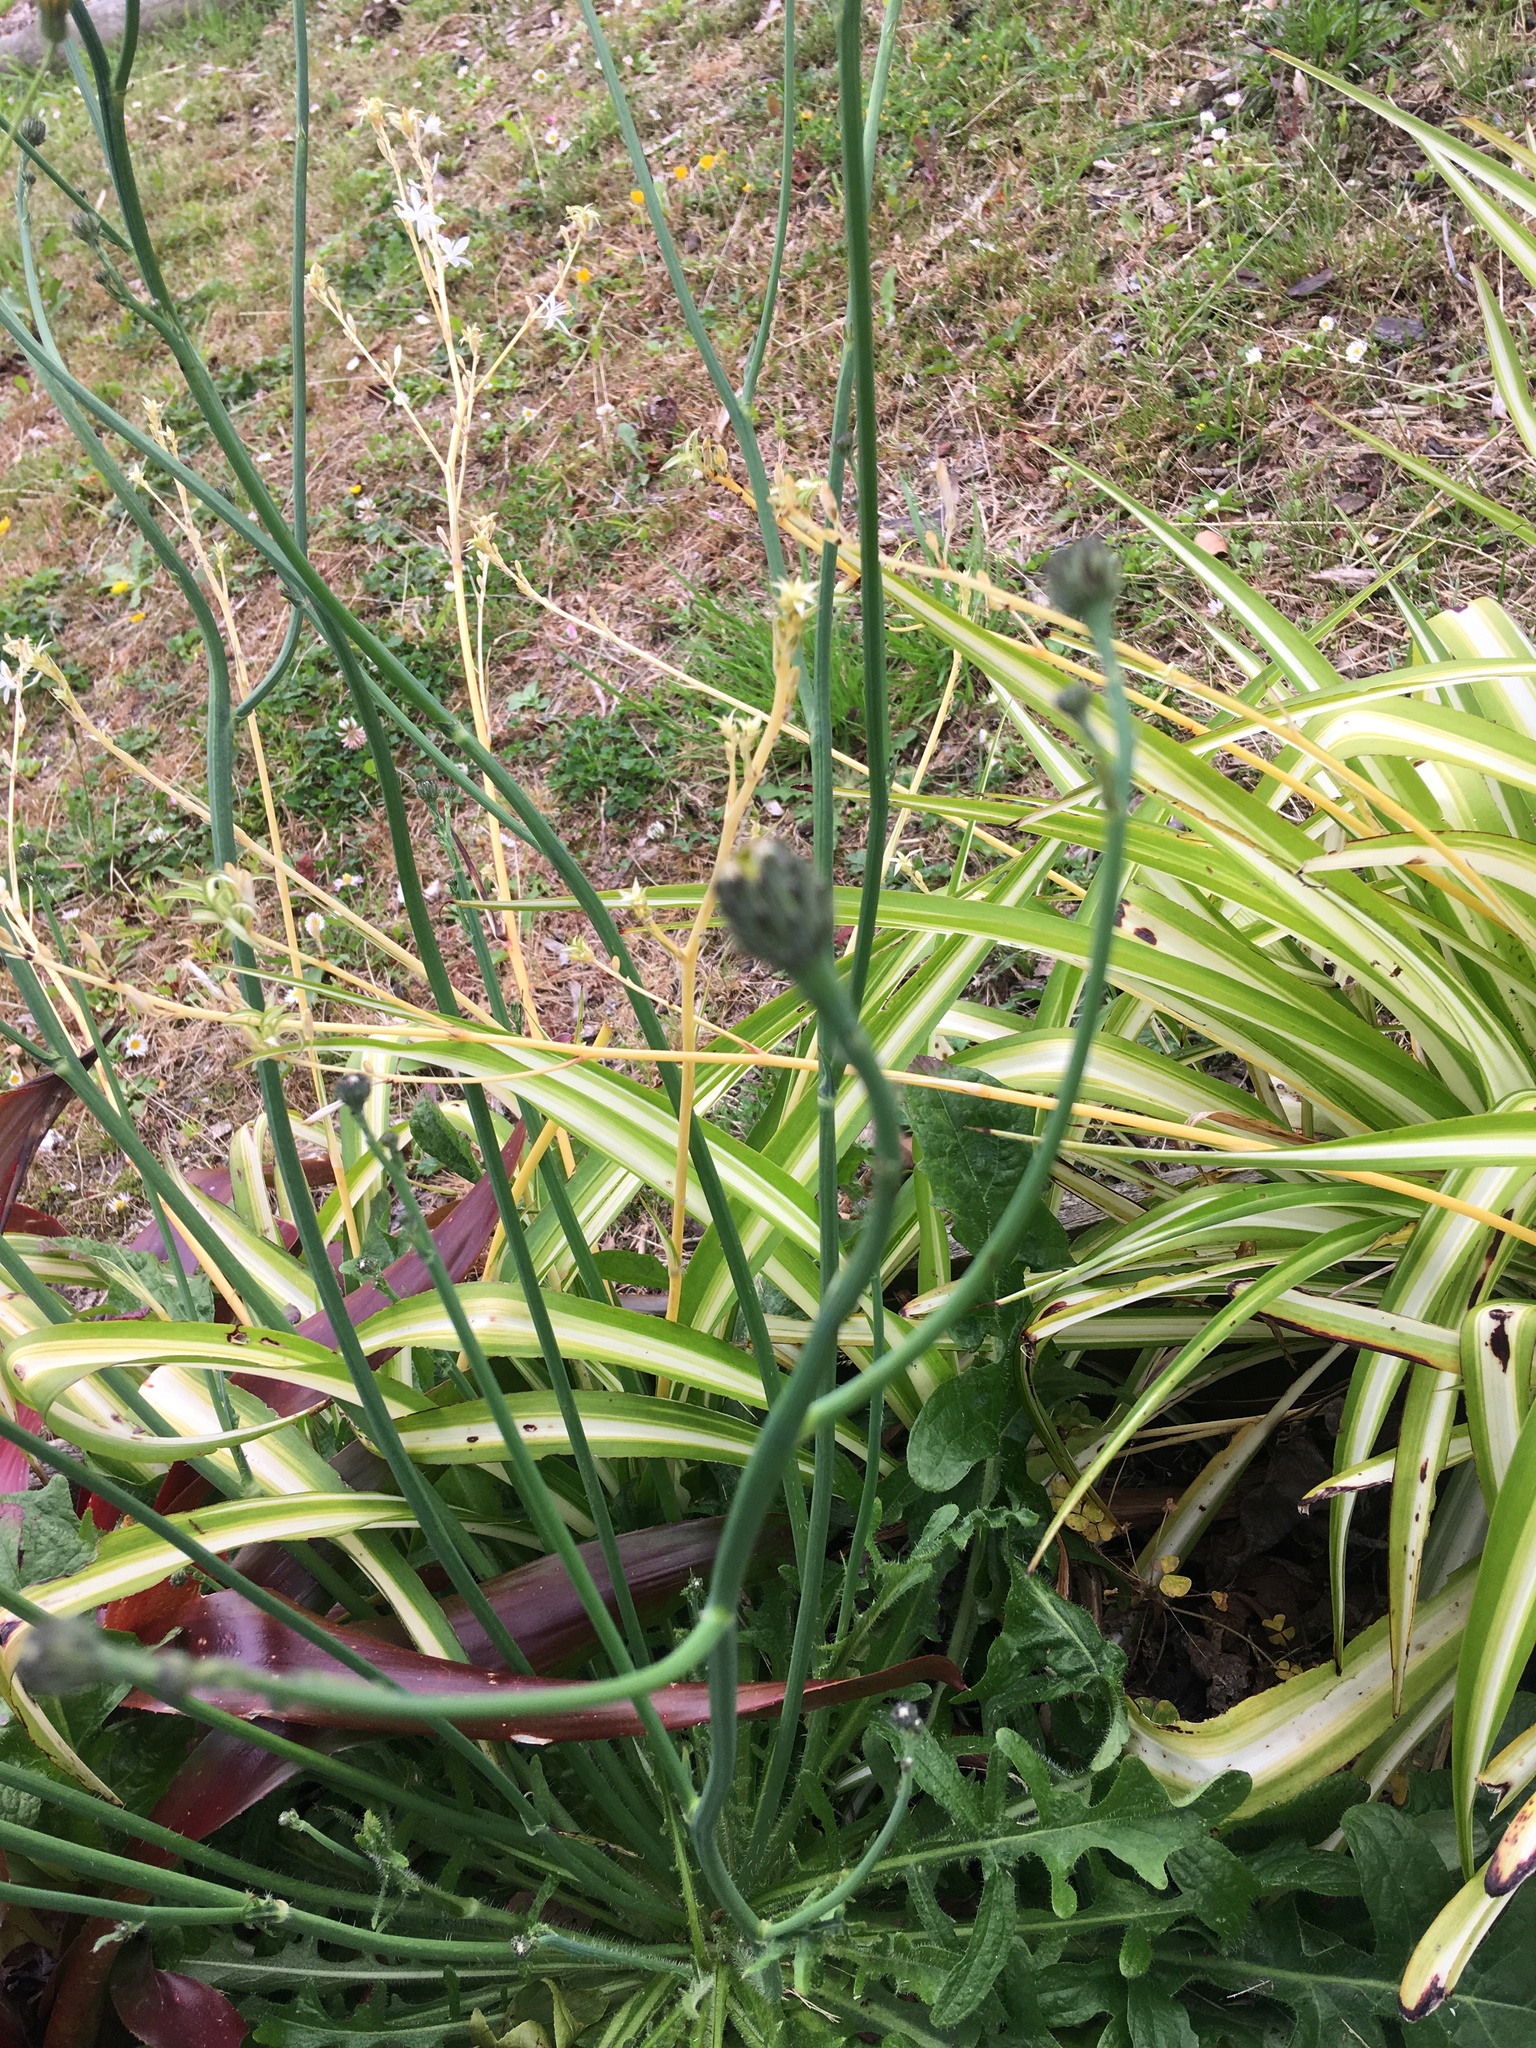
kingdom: Plantae
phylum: Tracheophyta
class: Magnoliopsida
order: Asterales
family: Asteraceae
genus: Hypochaeris
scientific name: Hypochaeris radicata
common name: Flatweed
